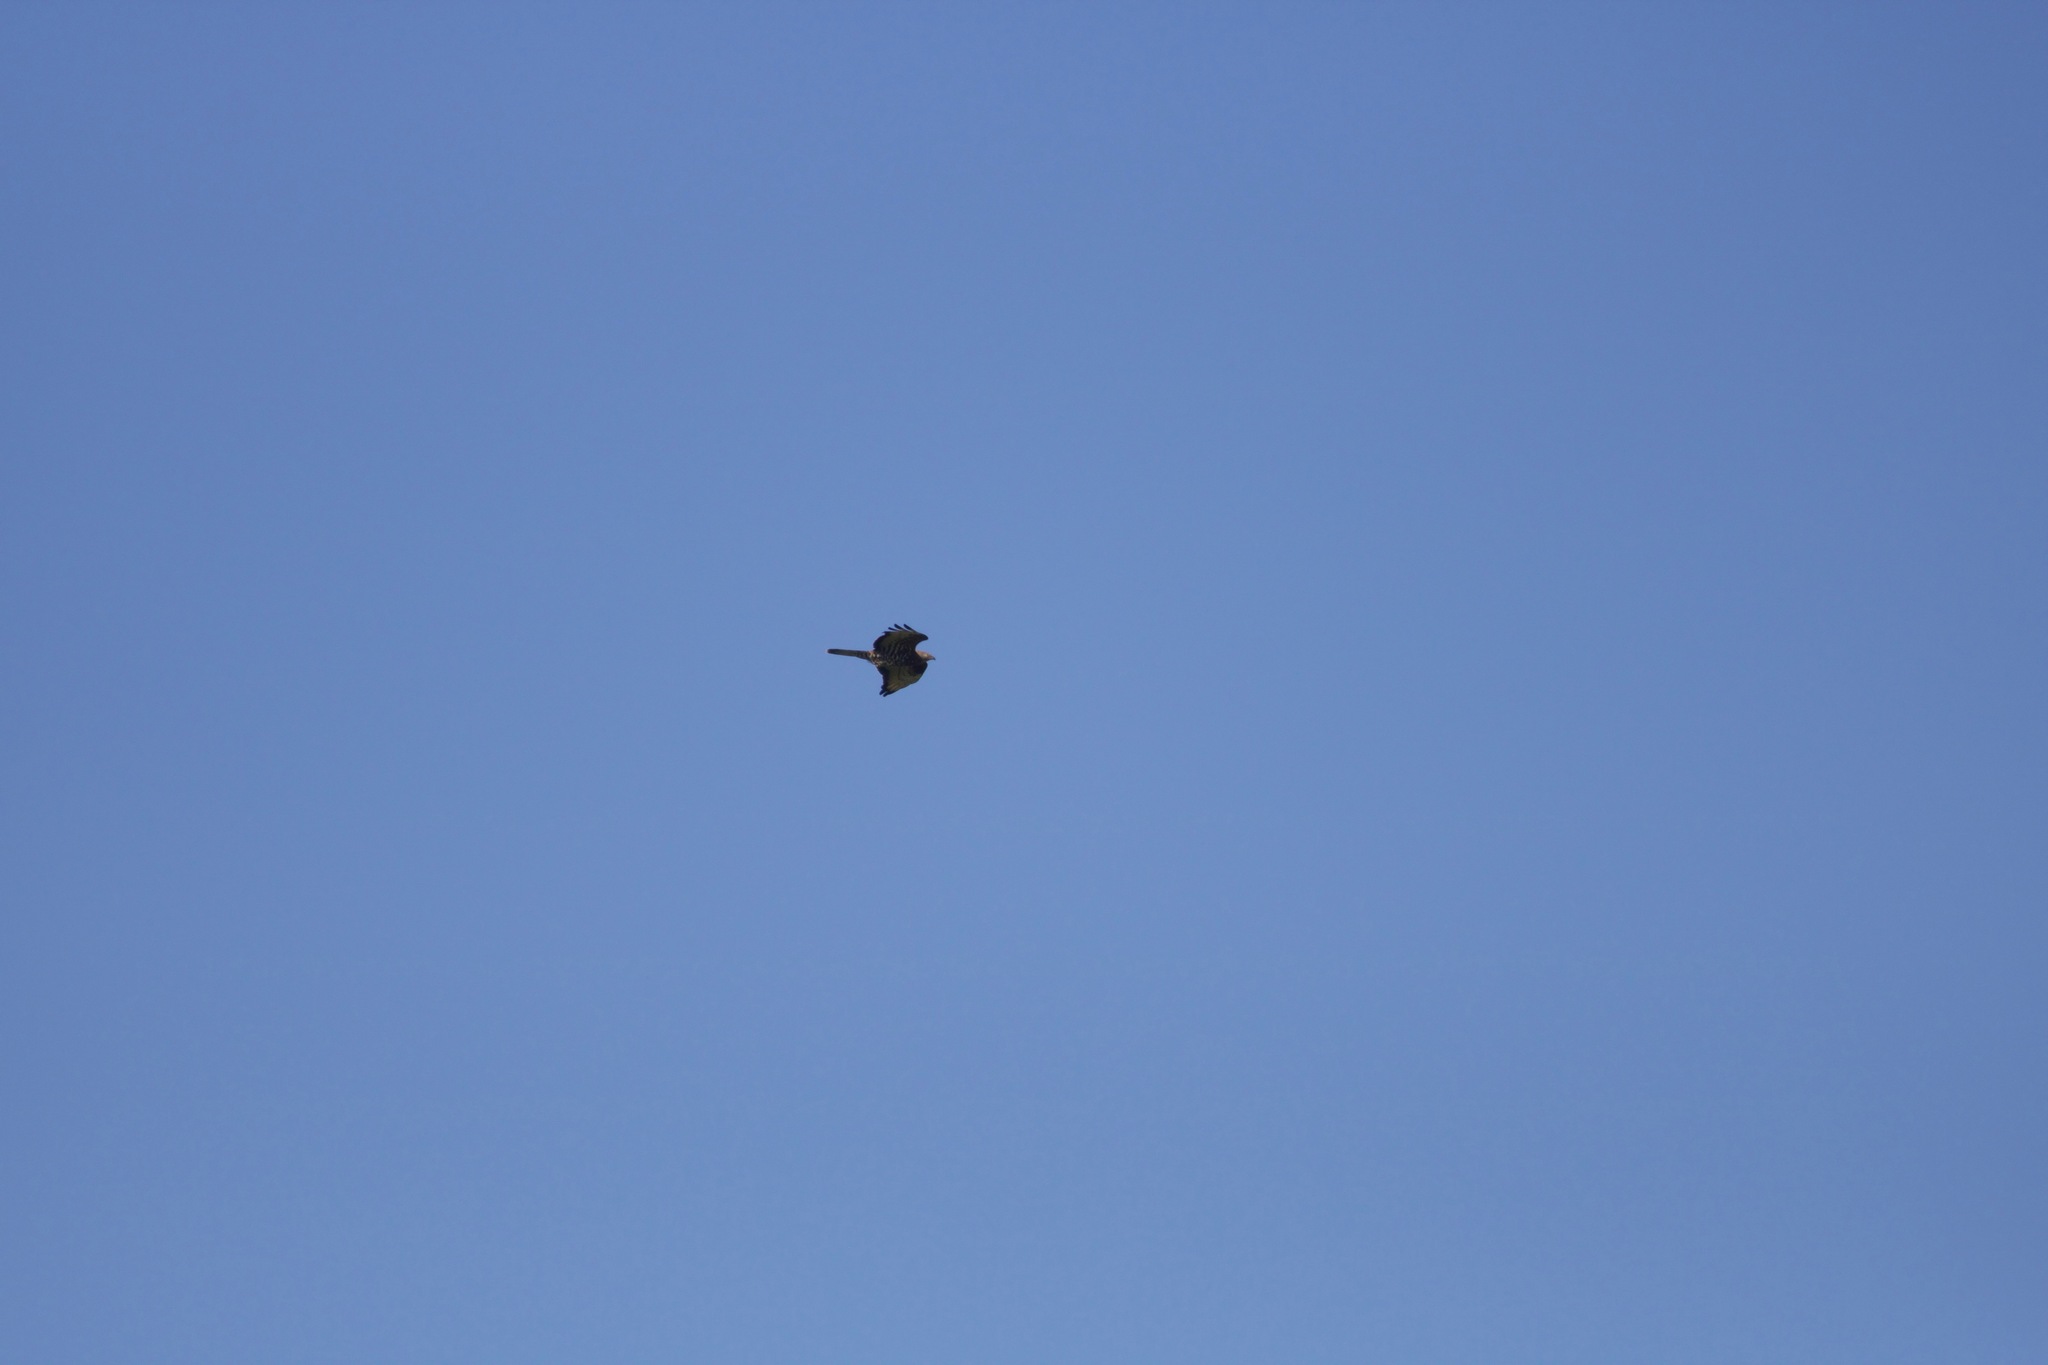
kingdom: Animalia
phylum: Chordata
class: Aves
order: Accipitriformes
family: Accipitridae
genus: Pernis
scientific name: Pernis apivorus
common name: European honey buzzard
